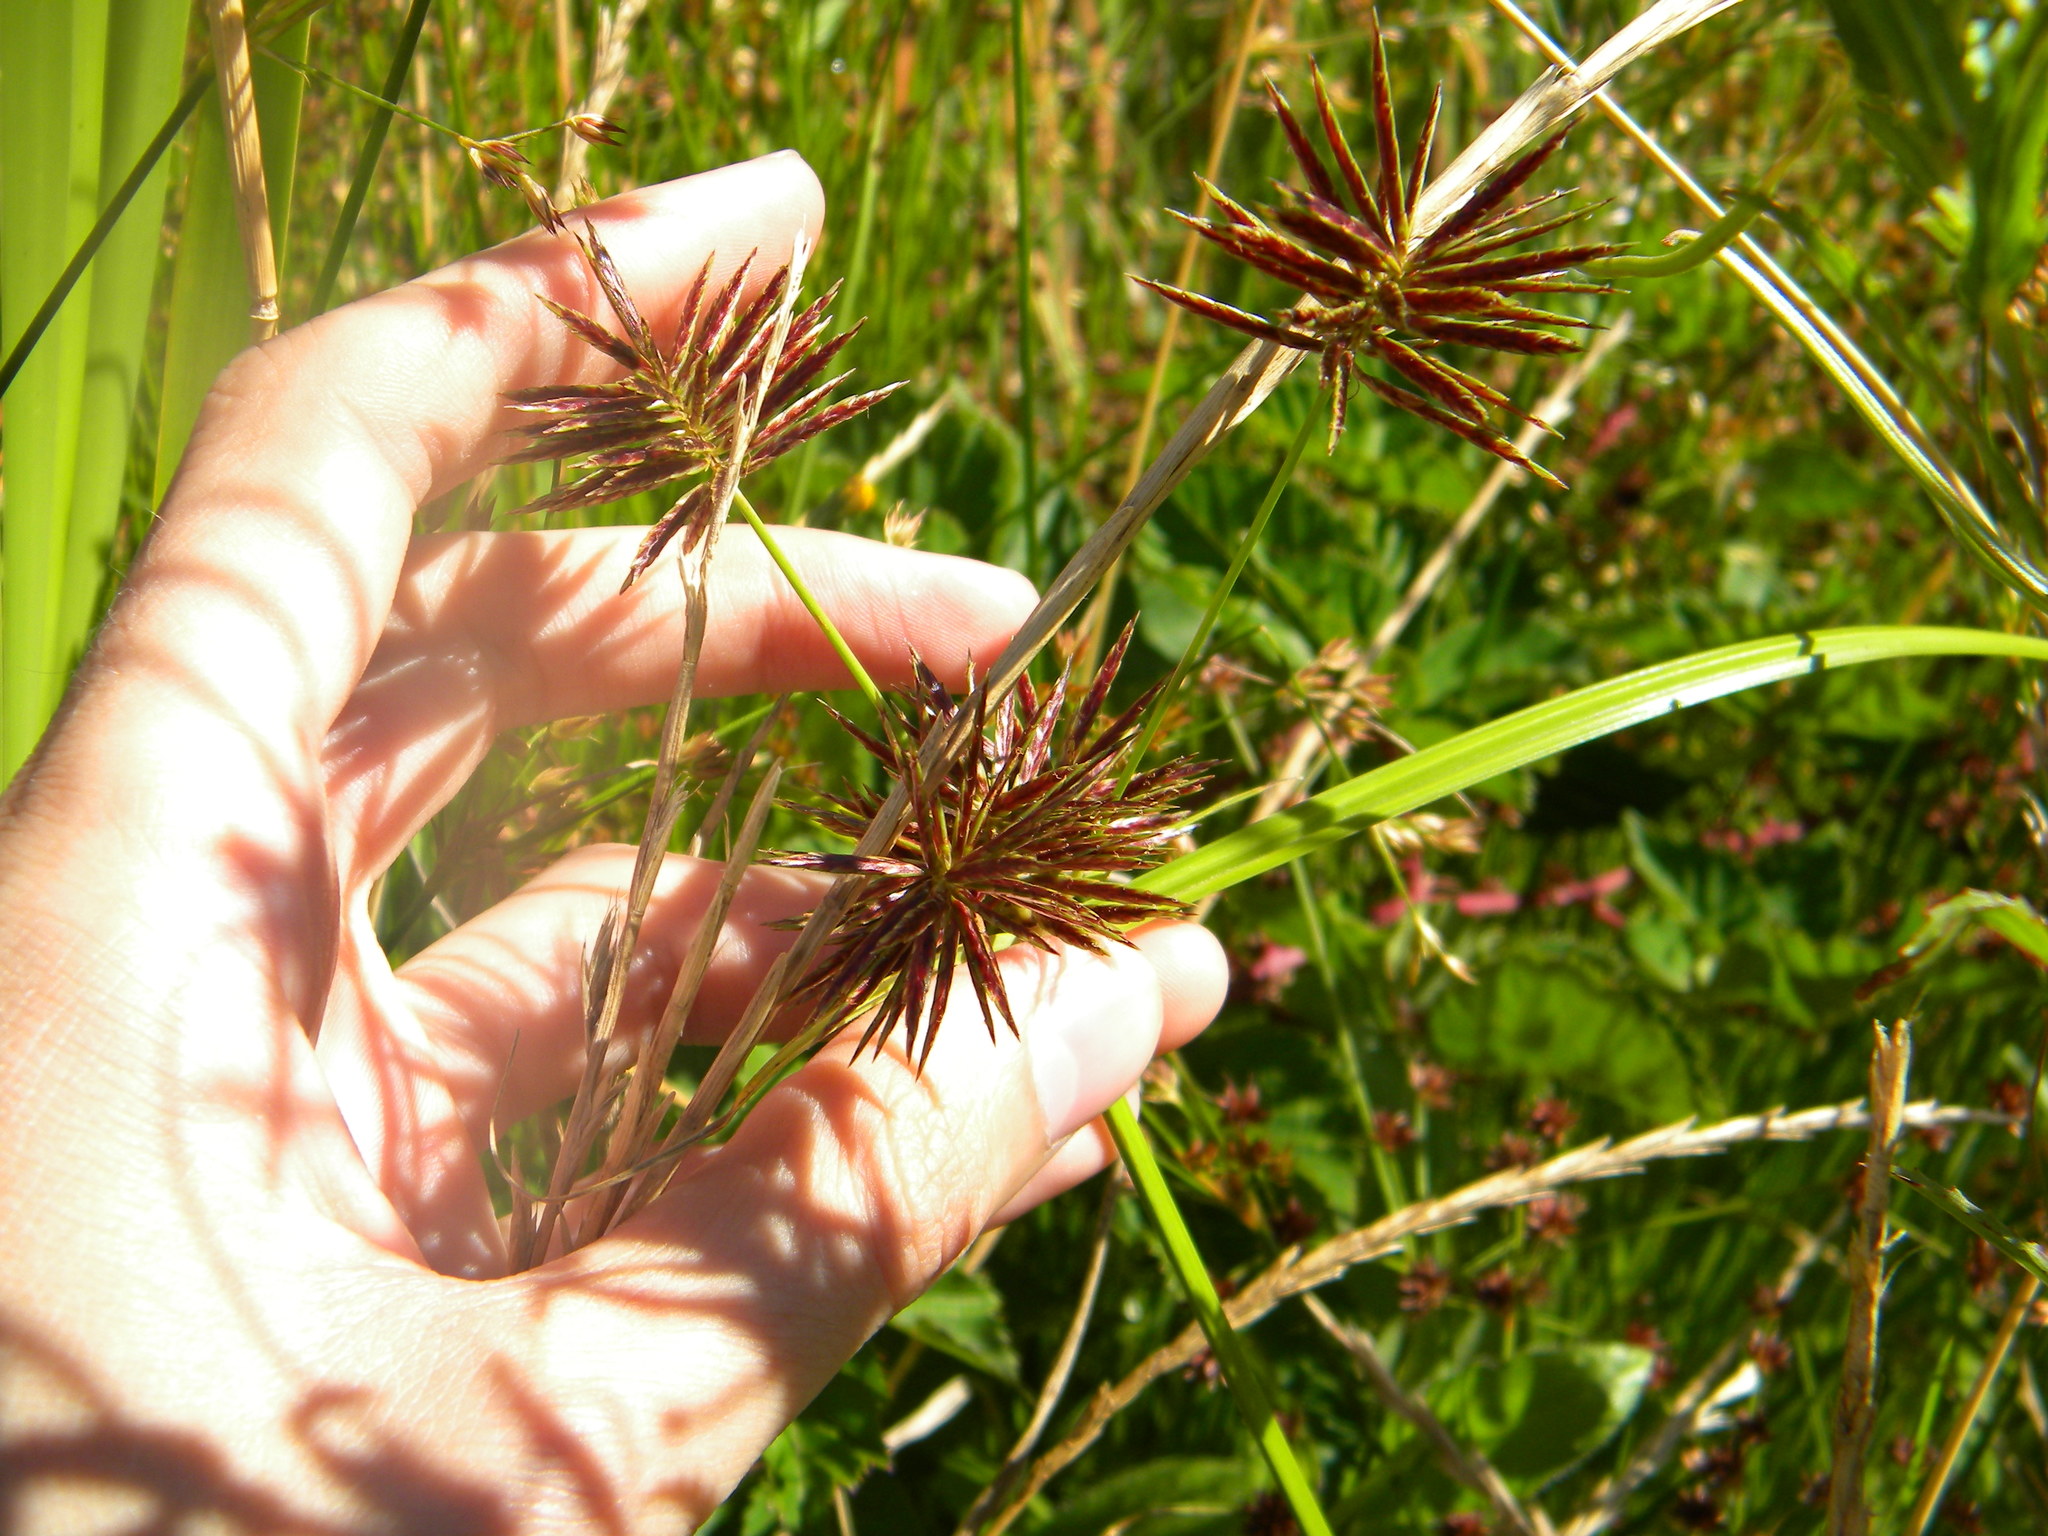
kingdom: Plantae
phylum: Tracheophyta
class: Liliopsida
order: Poales
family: Cyperaceae
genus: Cyperus
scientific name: Cyperus congestus
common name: Dense flat sedge
